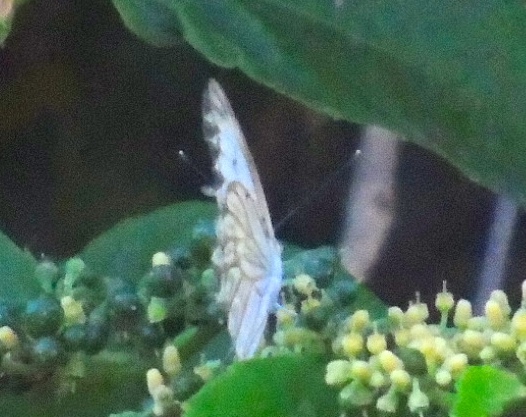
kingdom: Animalia
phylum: Arthropoda
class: Insecta
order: Lepidoptera
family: Pieridae
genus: Ascia
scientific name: Ascia monuste
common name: Great southern white
